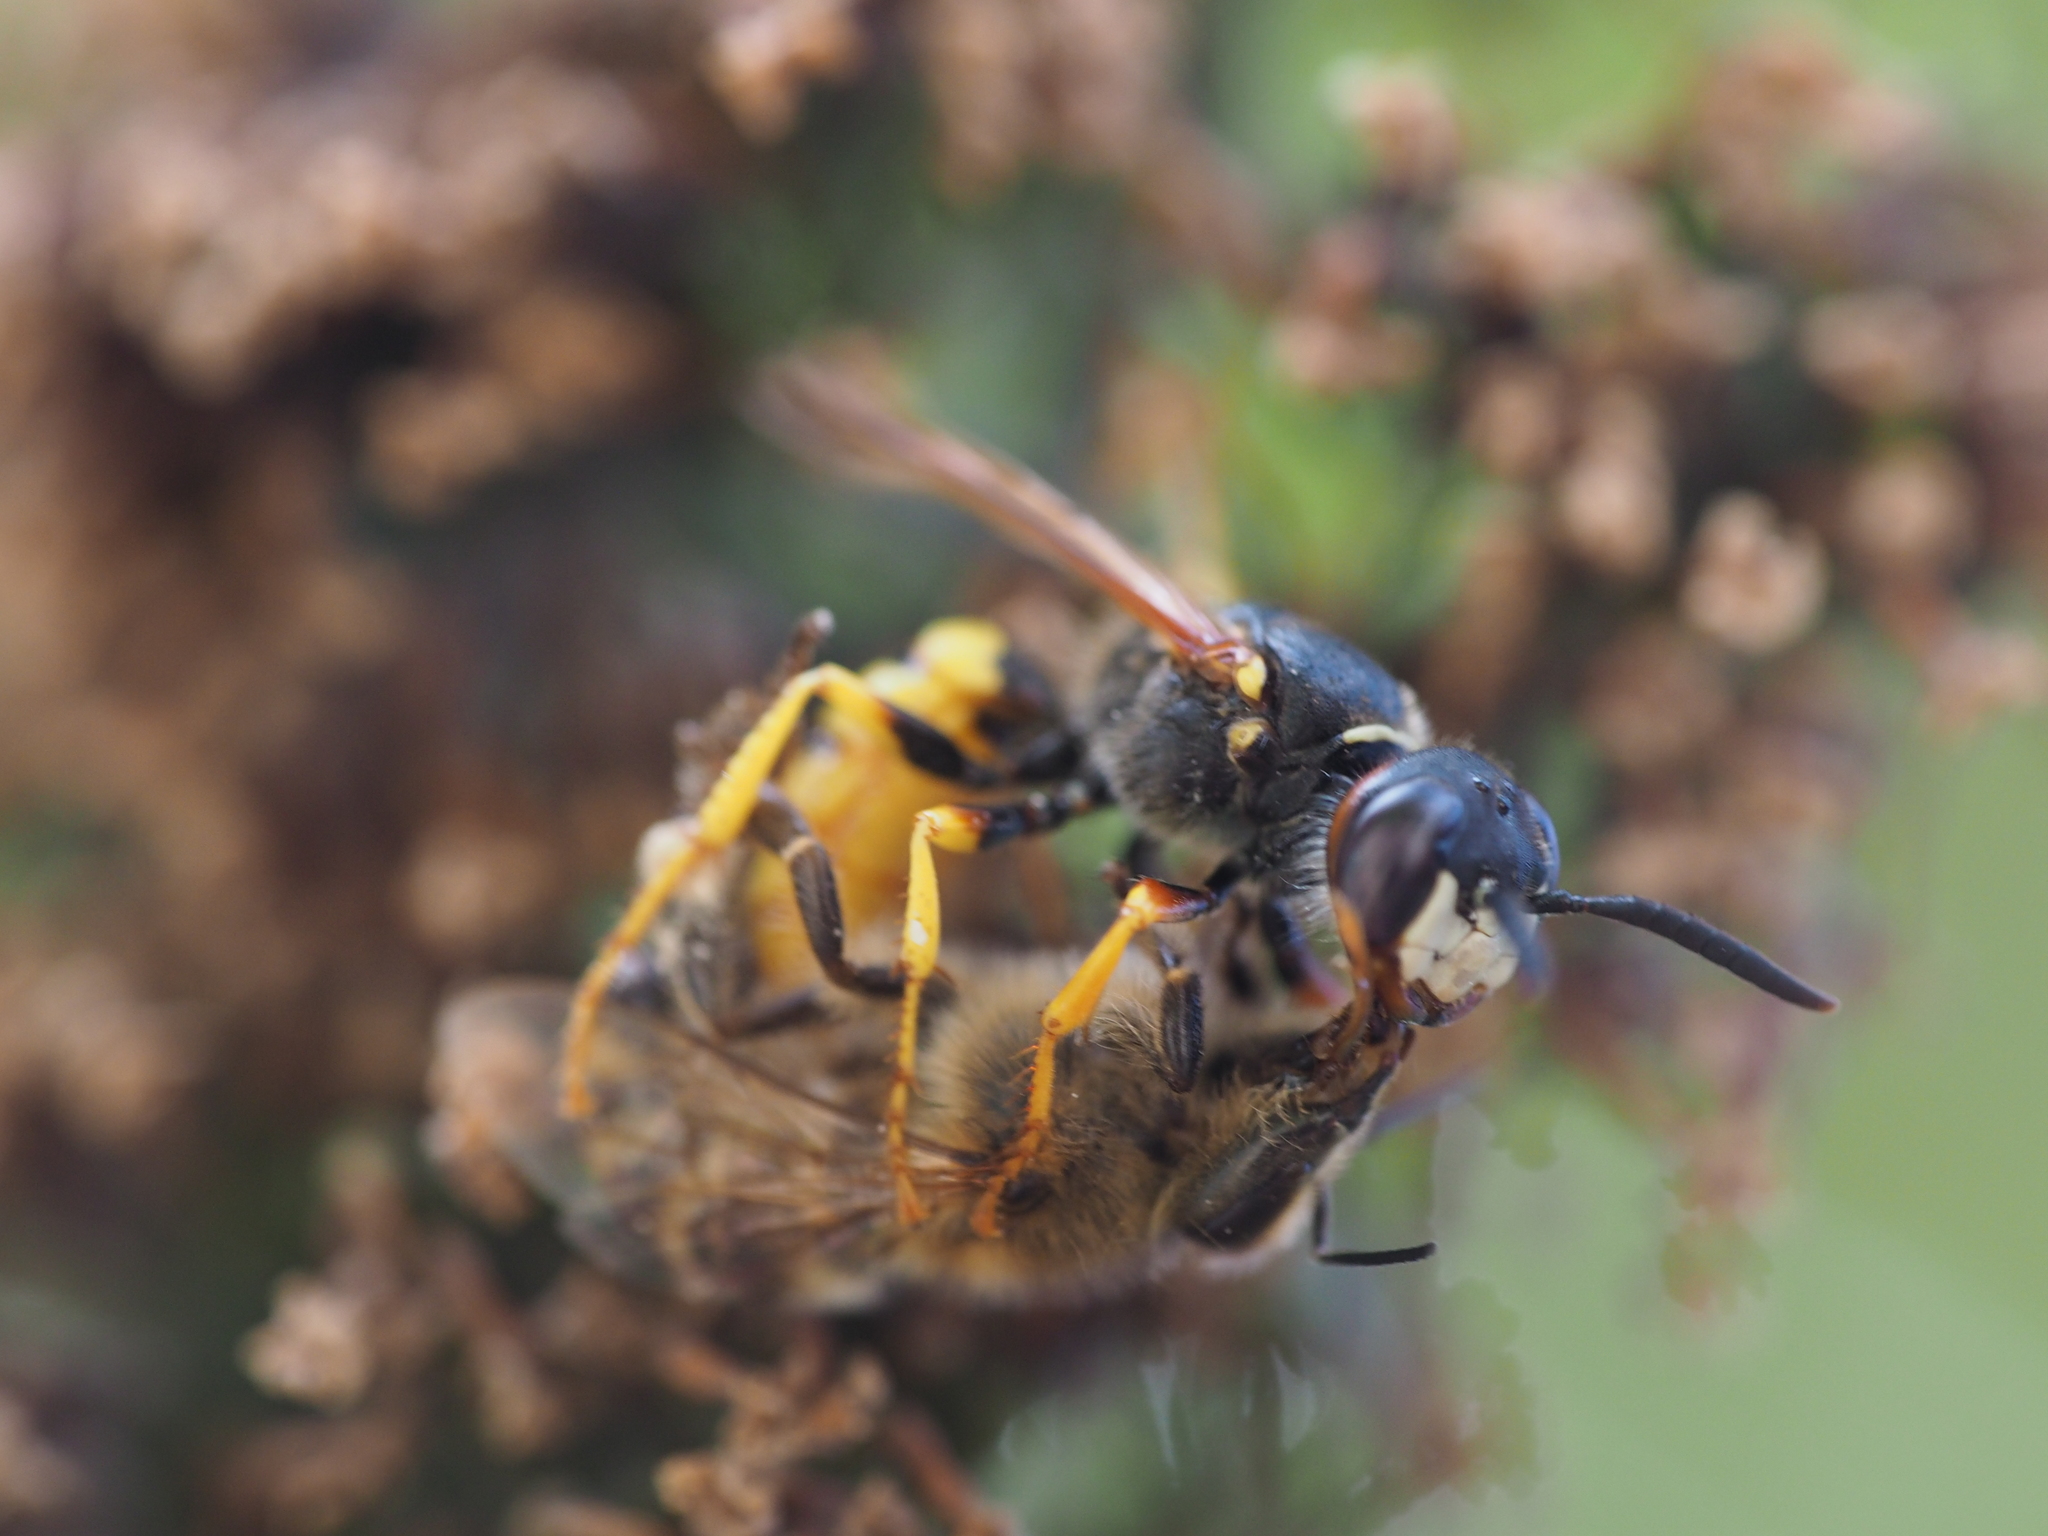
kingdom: Animalia
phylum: Arthropoda
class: Insecta
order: Hymenoptera
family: Crabronidae
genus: Philanthus
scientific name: Philanthus triangulum
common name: Bee wolf
